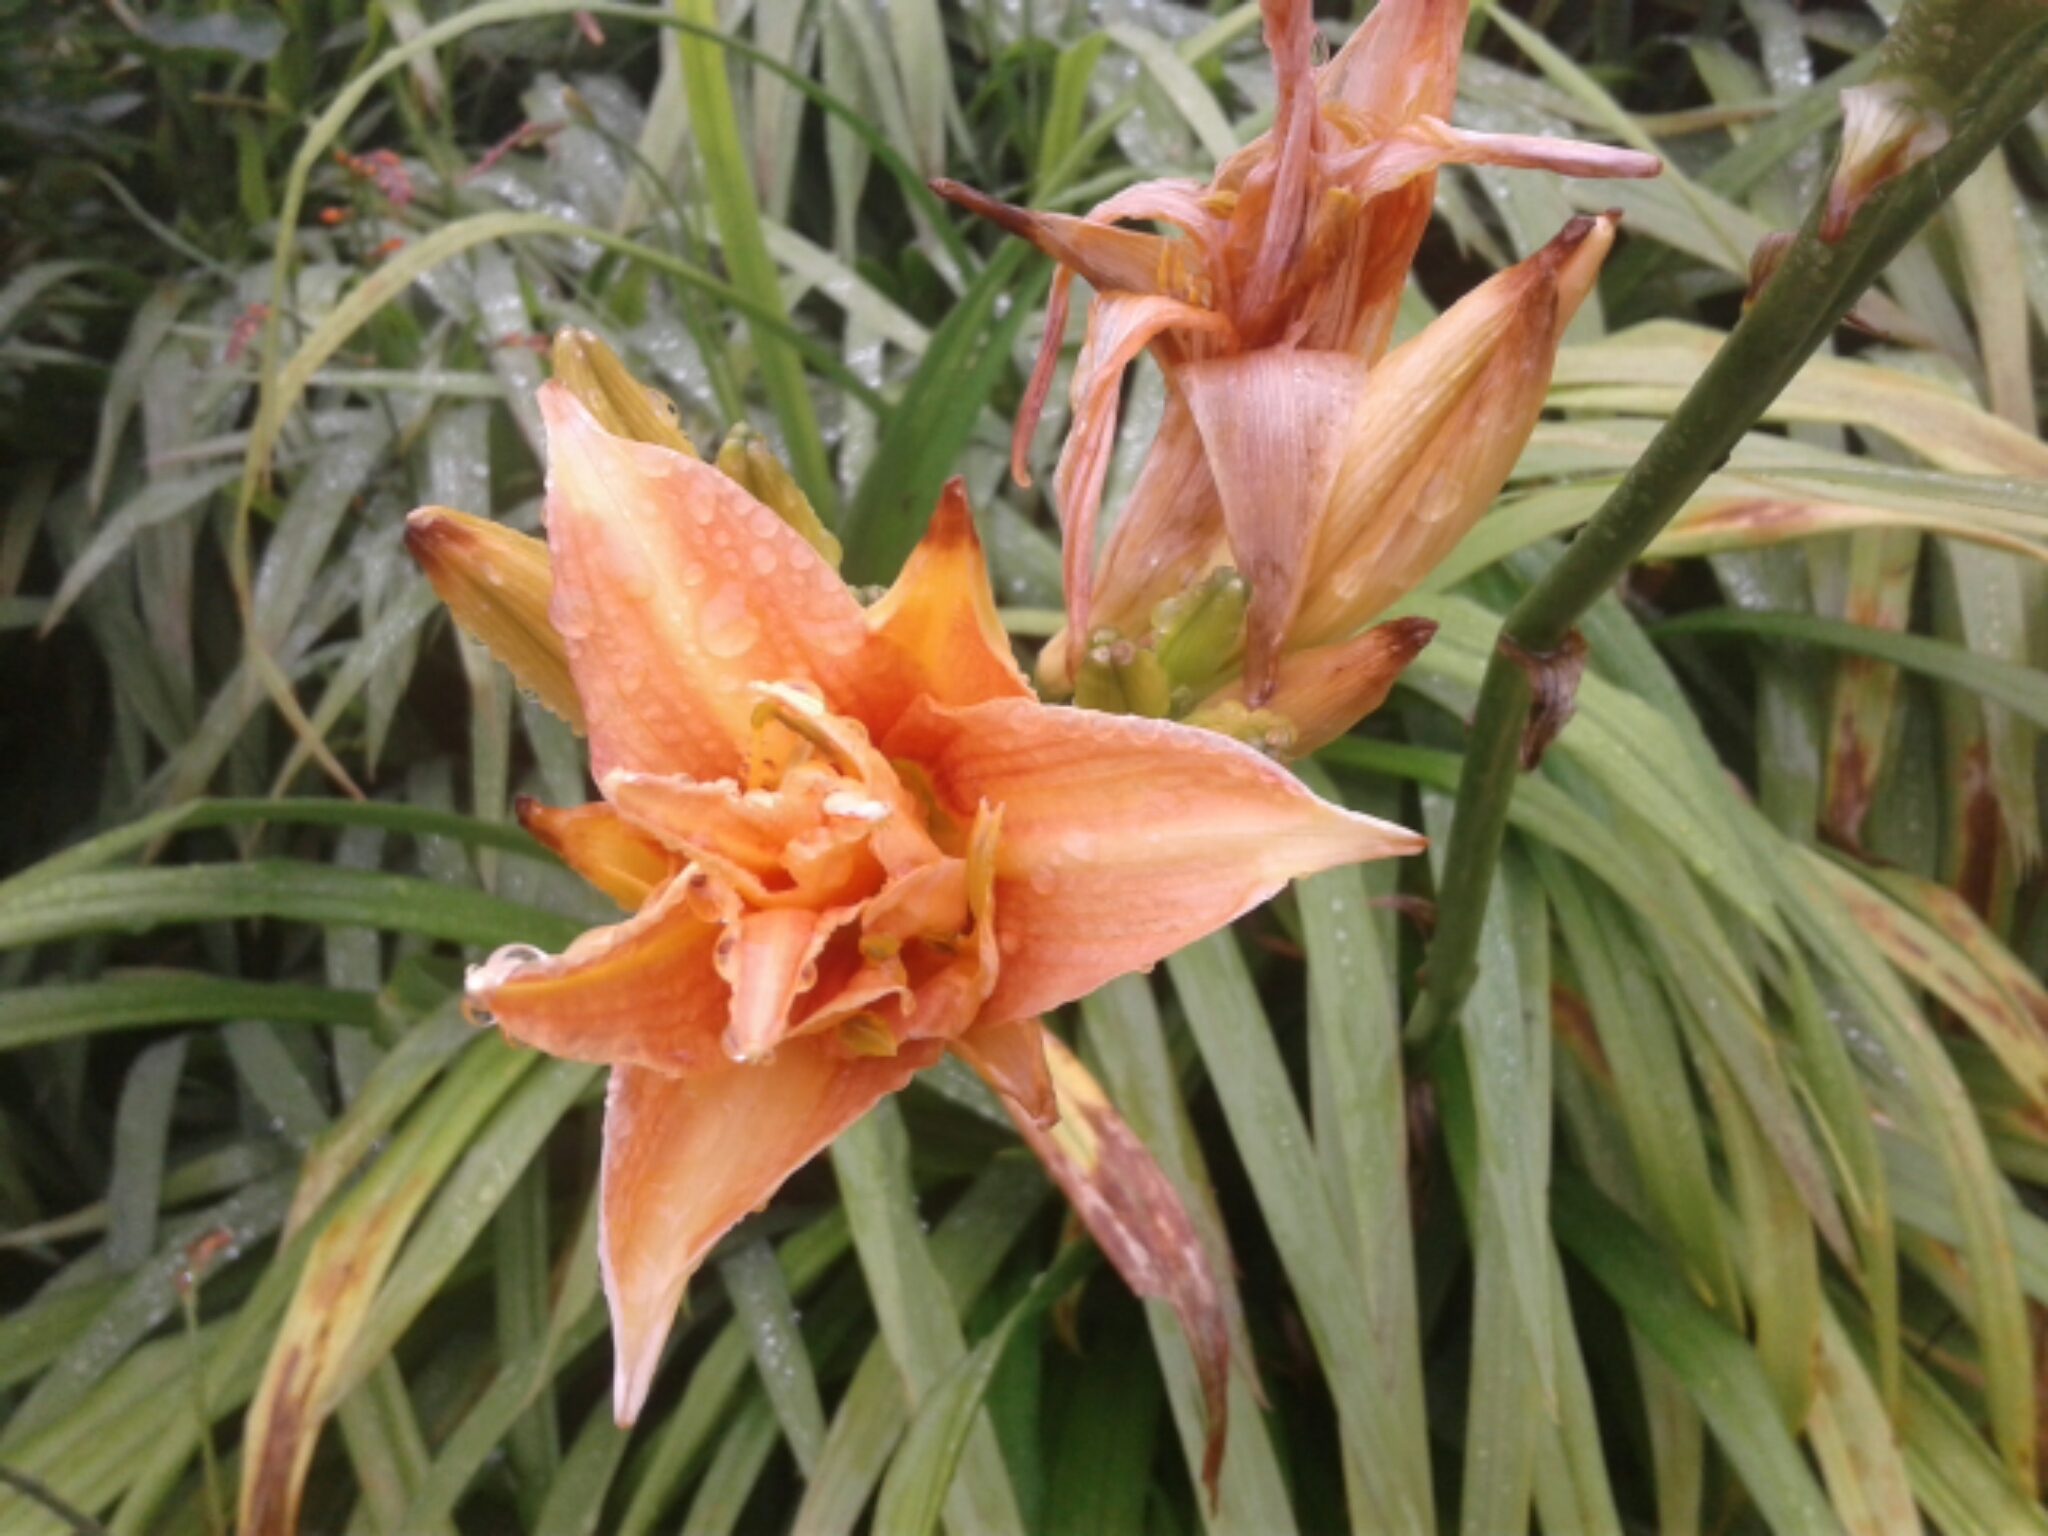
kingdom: Plantae
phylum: Tracheophyta
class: Liliopsida
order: Asparagales
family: Asphodelaceae
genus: Hemerocallis
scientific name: Hemerocallis
